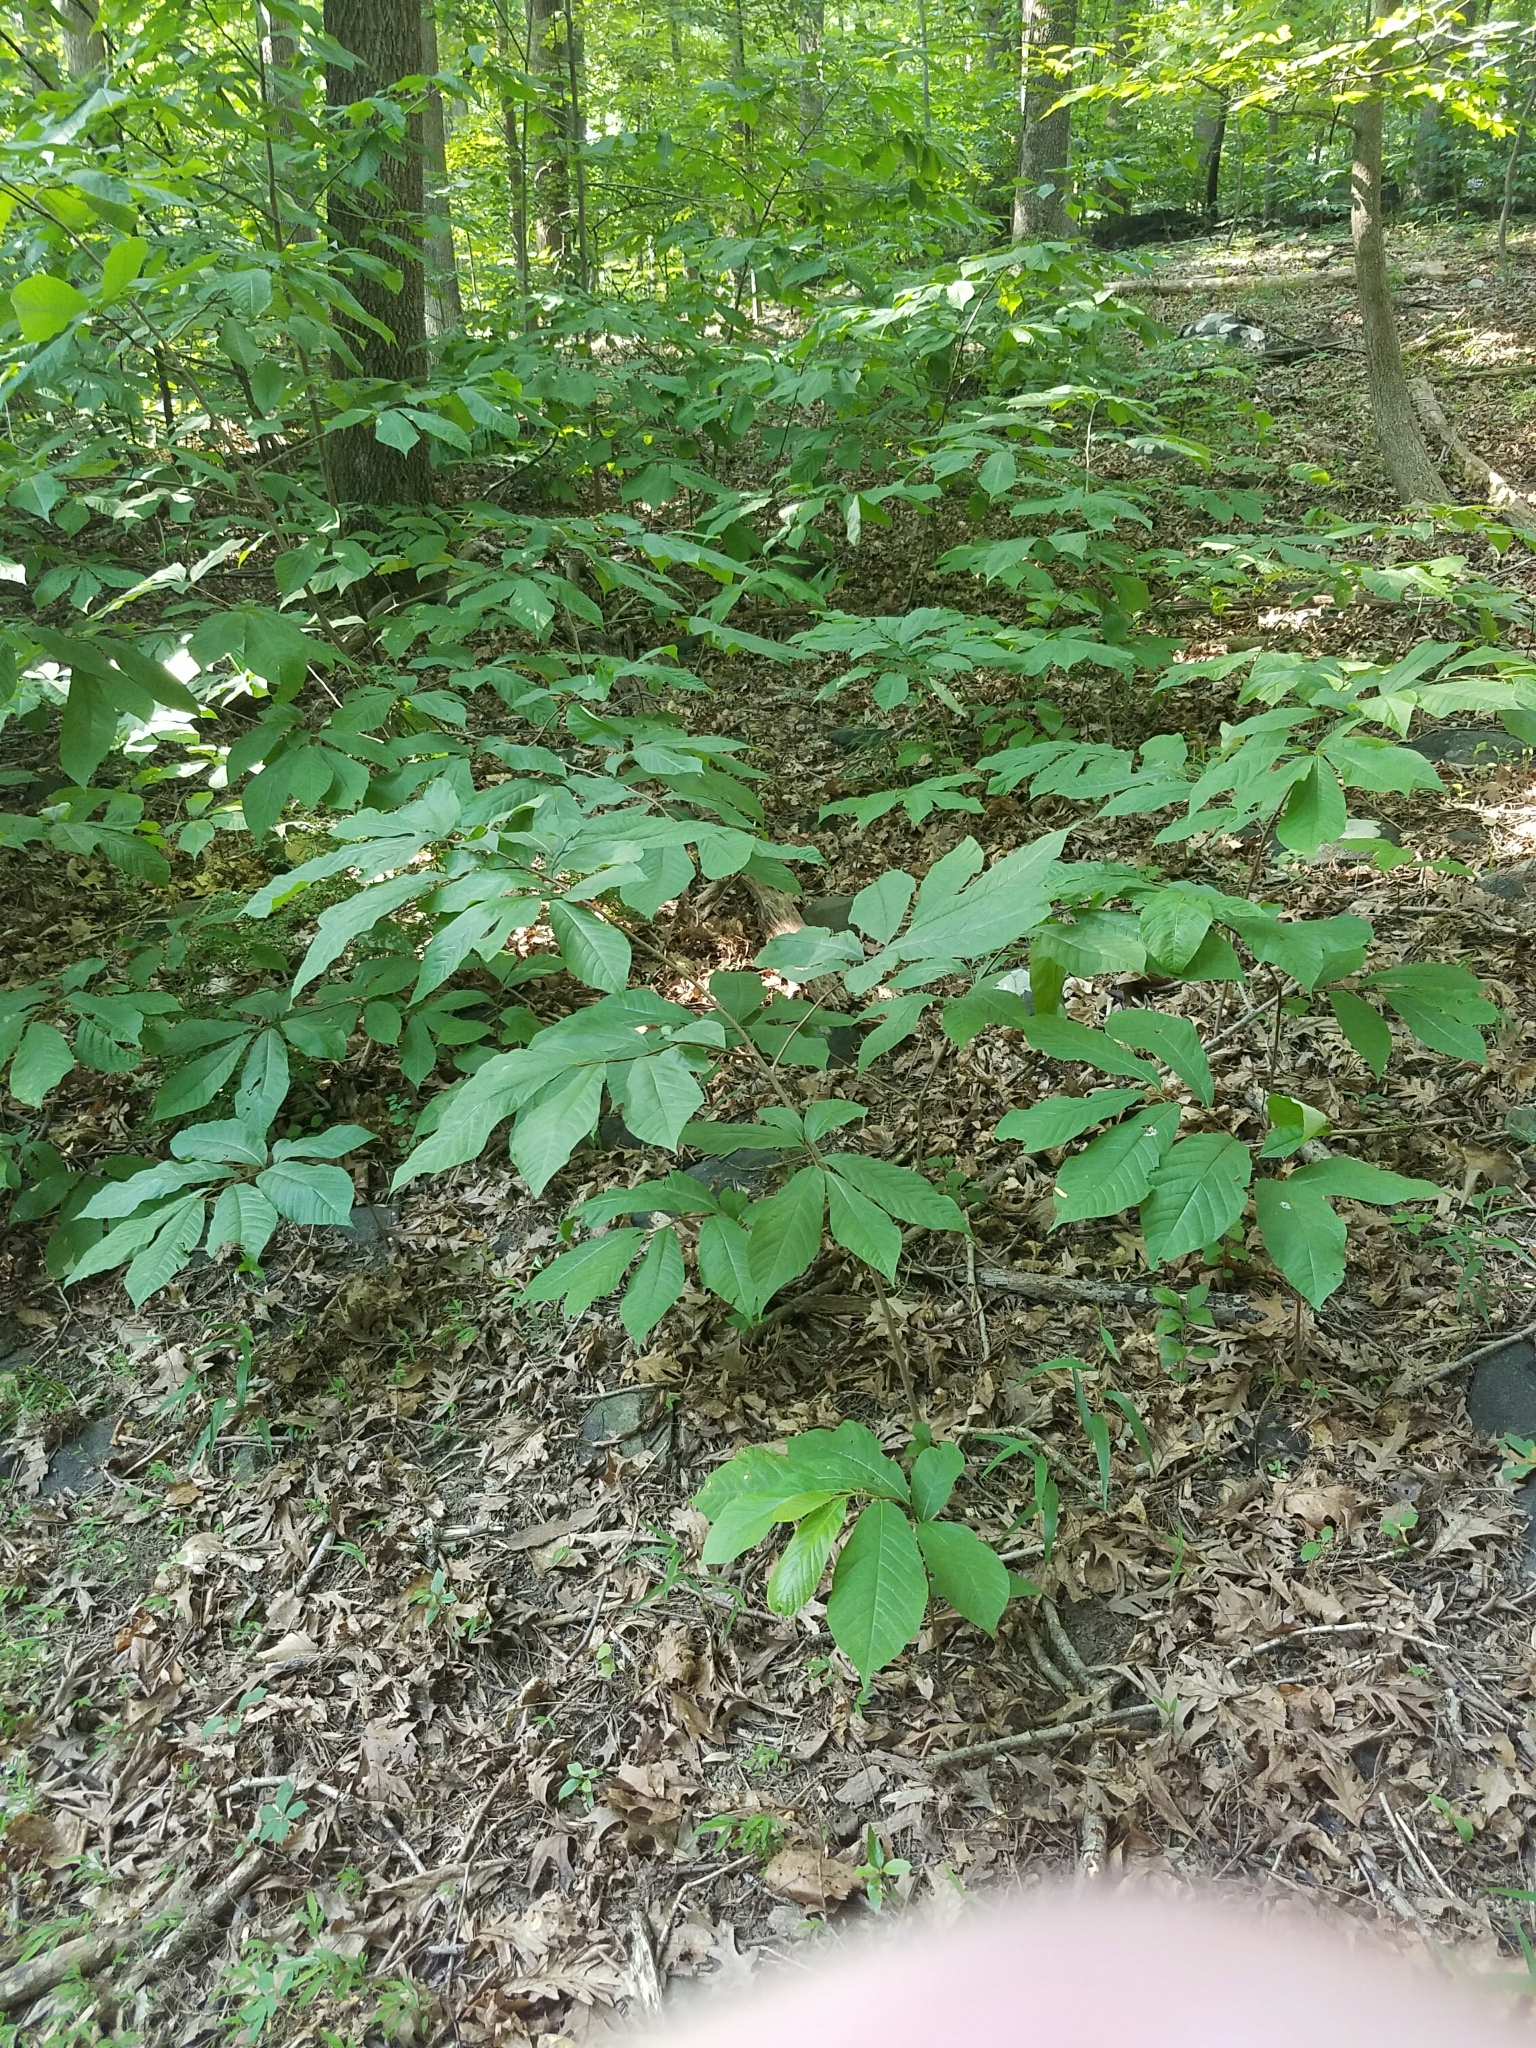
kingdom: Plantae
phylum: Tracheophyta
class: Magnoliopsida
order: Magnoliales
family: Annonaceae
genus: Asimina
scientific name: Asimina triloba
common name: Dog-banana
